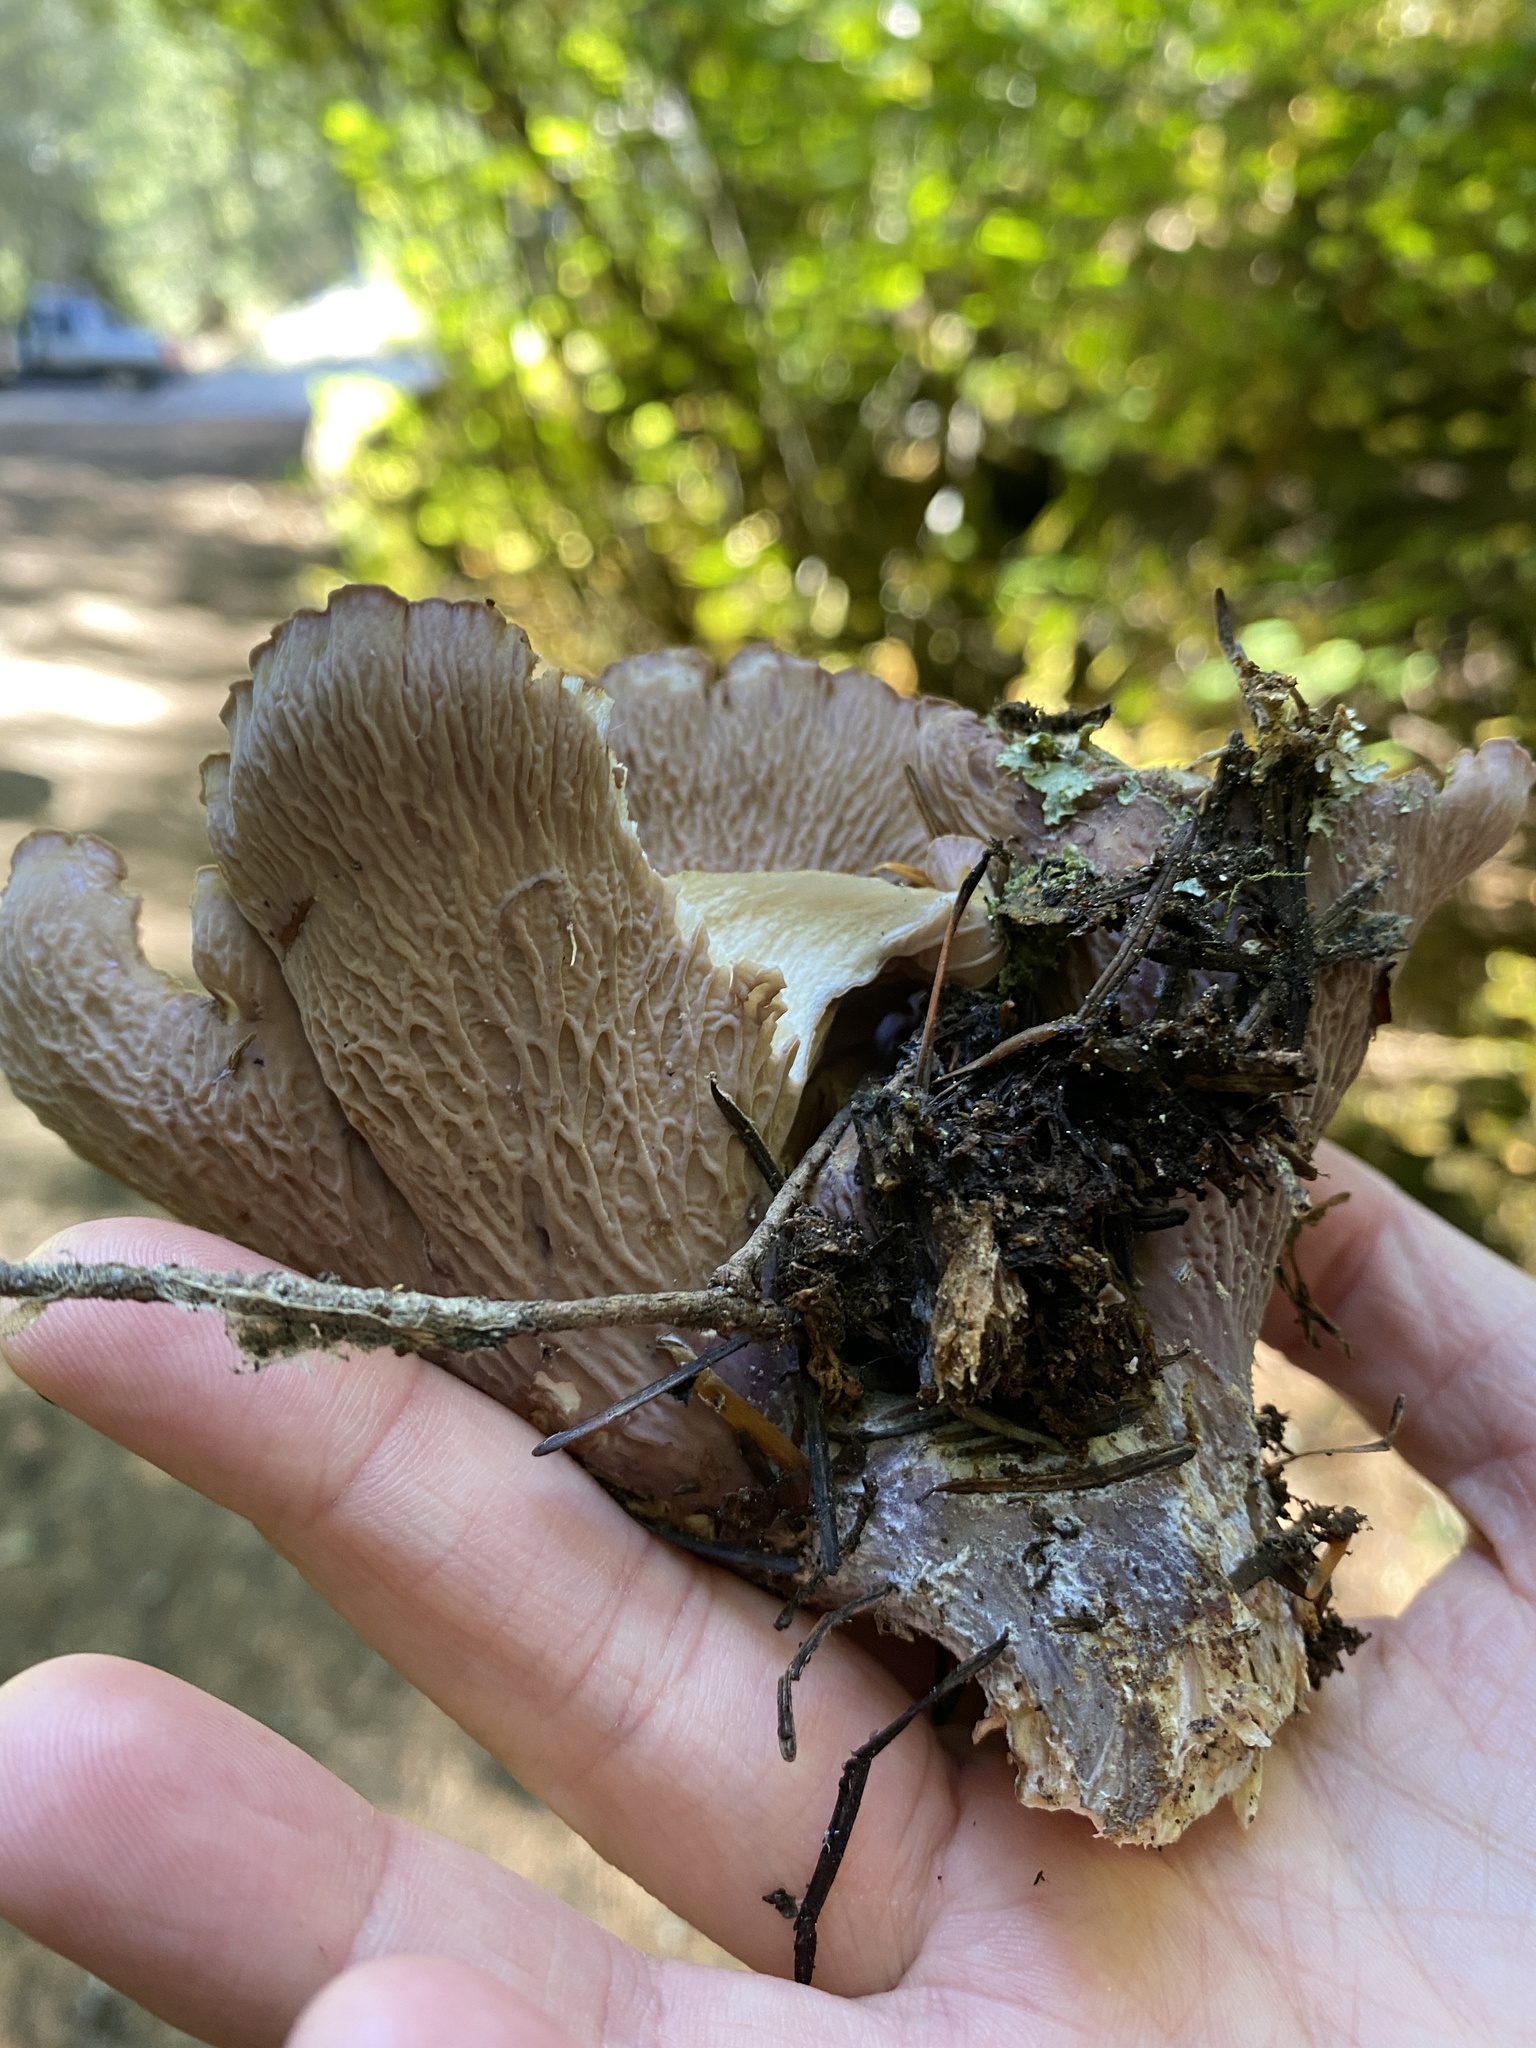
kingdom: Fungi
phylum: Basidiomycota
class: Agaricomycetes
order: Gomphales
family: Gomphaceae
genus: Gomphus
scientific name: Gomphus clavatus
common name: Pig's ear
